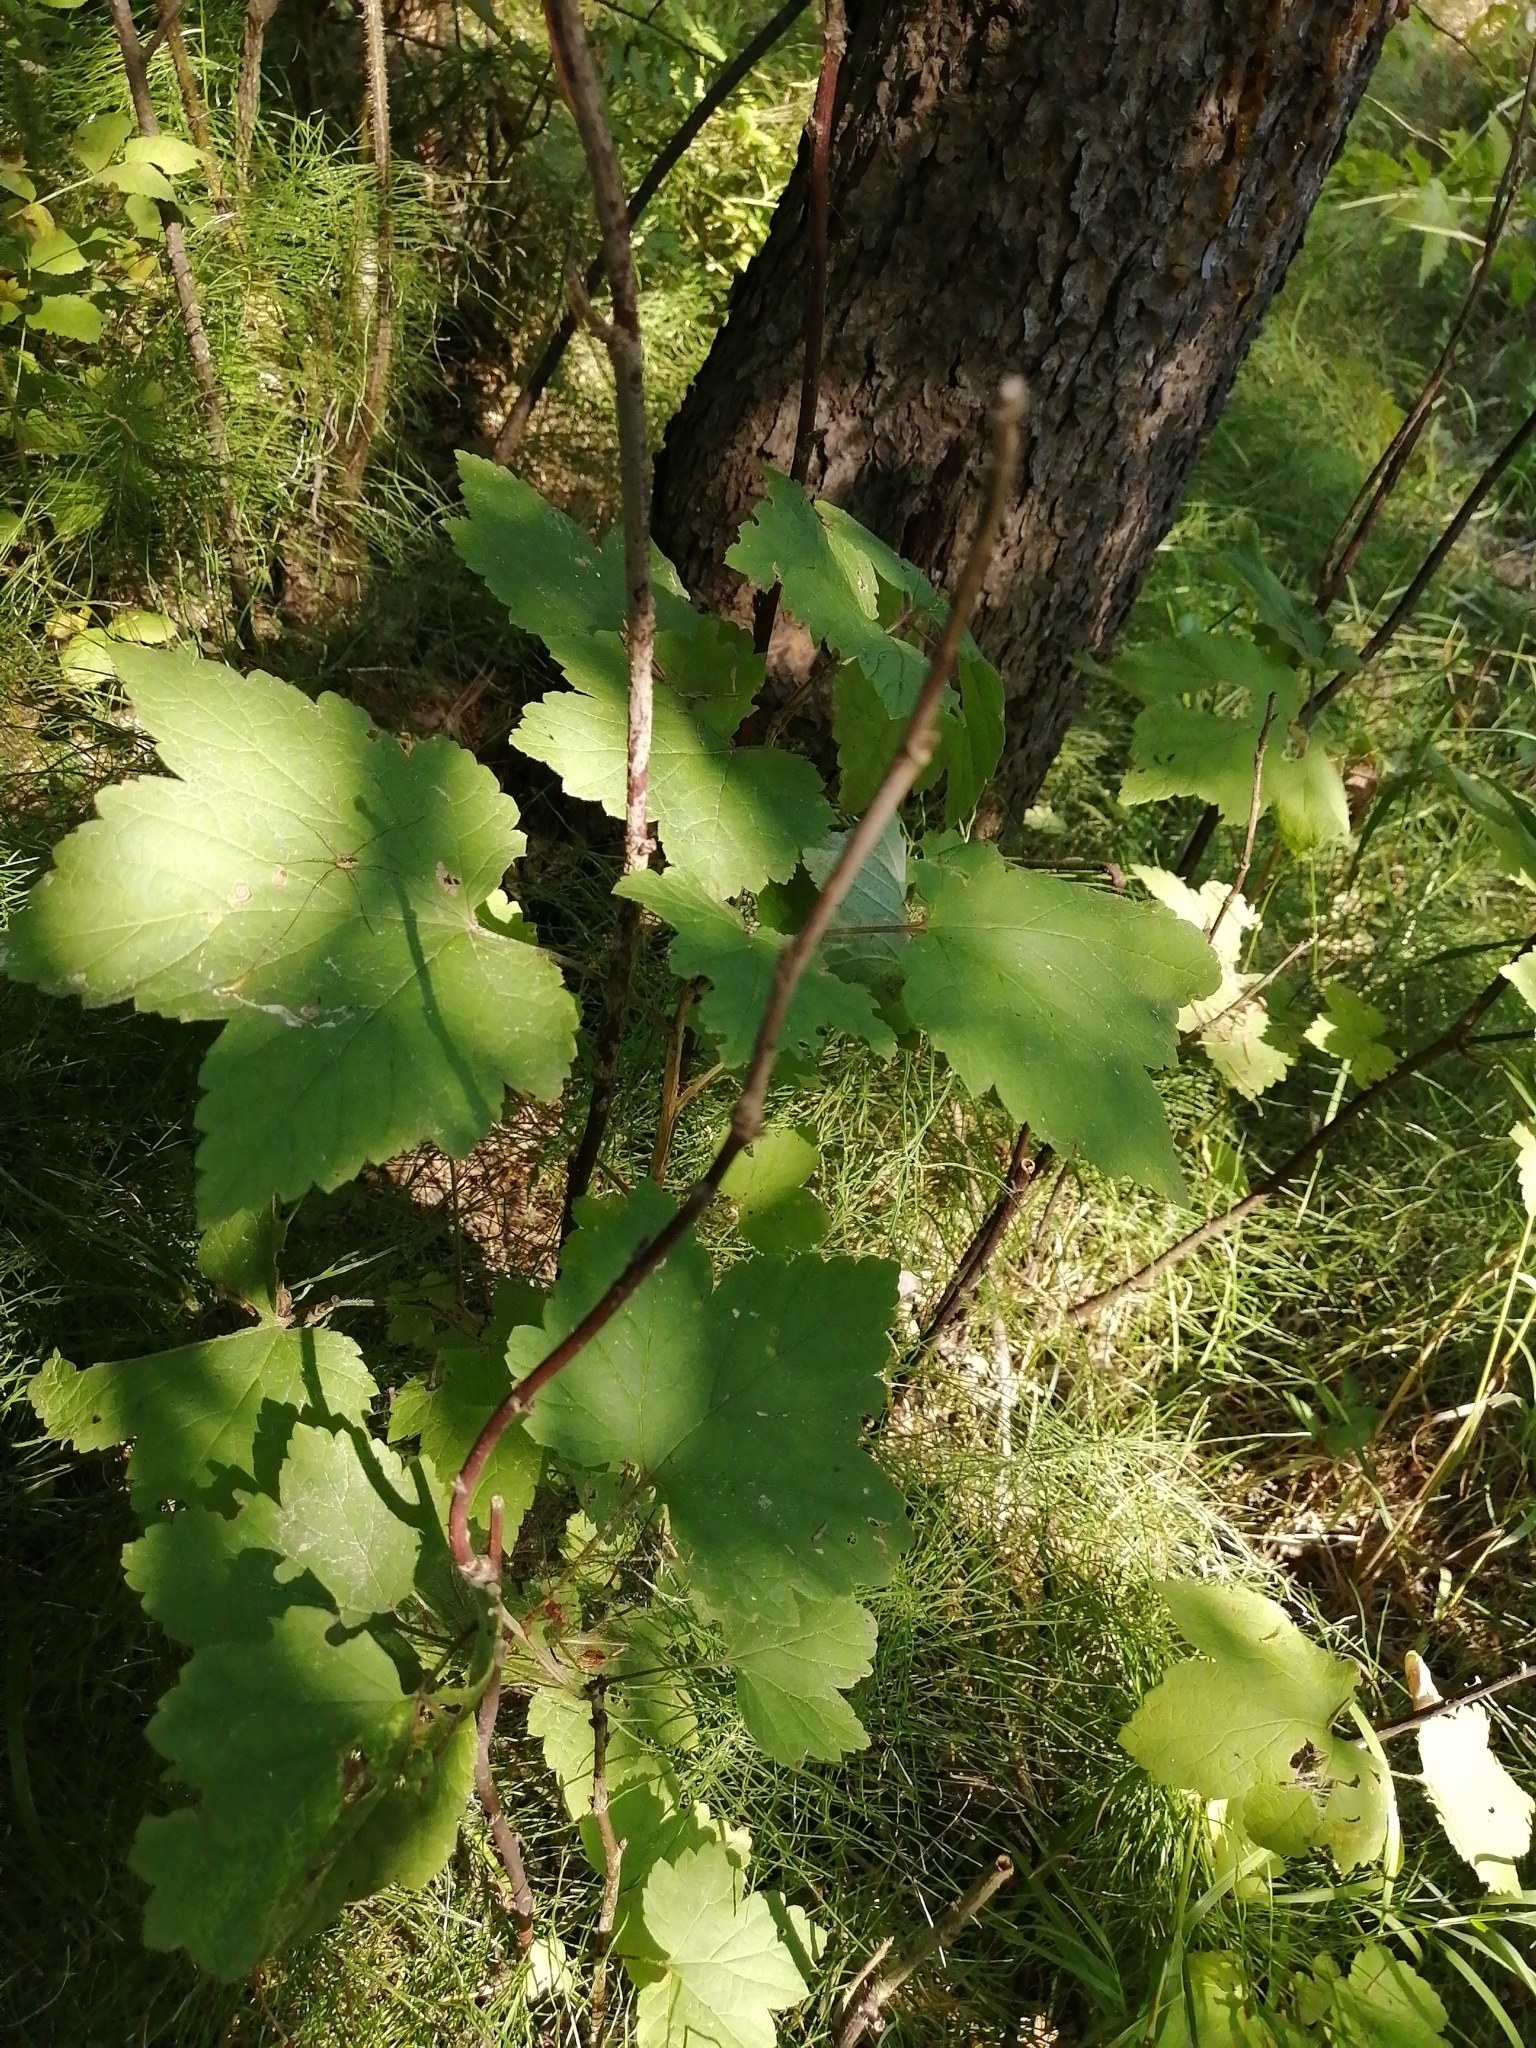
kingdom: Plantae
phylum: Tracheophyta
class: Magnoliopsida
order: Saxifragales
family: Grossulariaceae
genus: Ribes
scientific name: Ribes spicatum
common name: Downy currant
